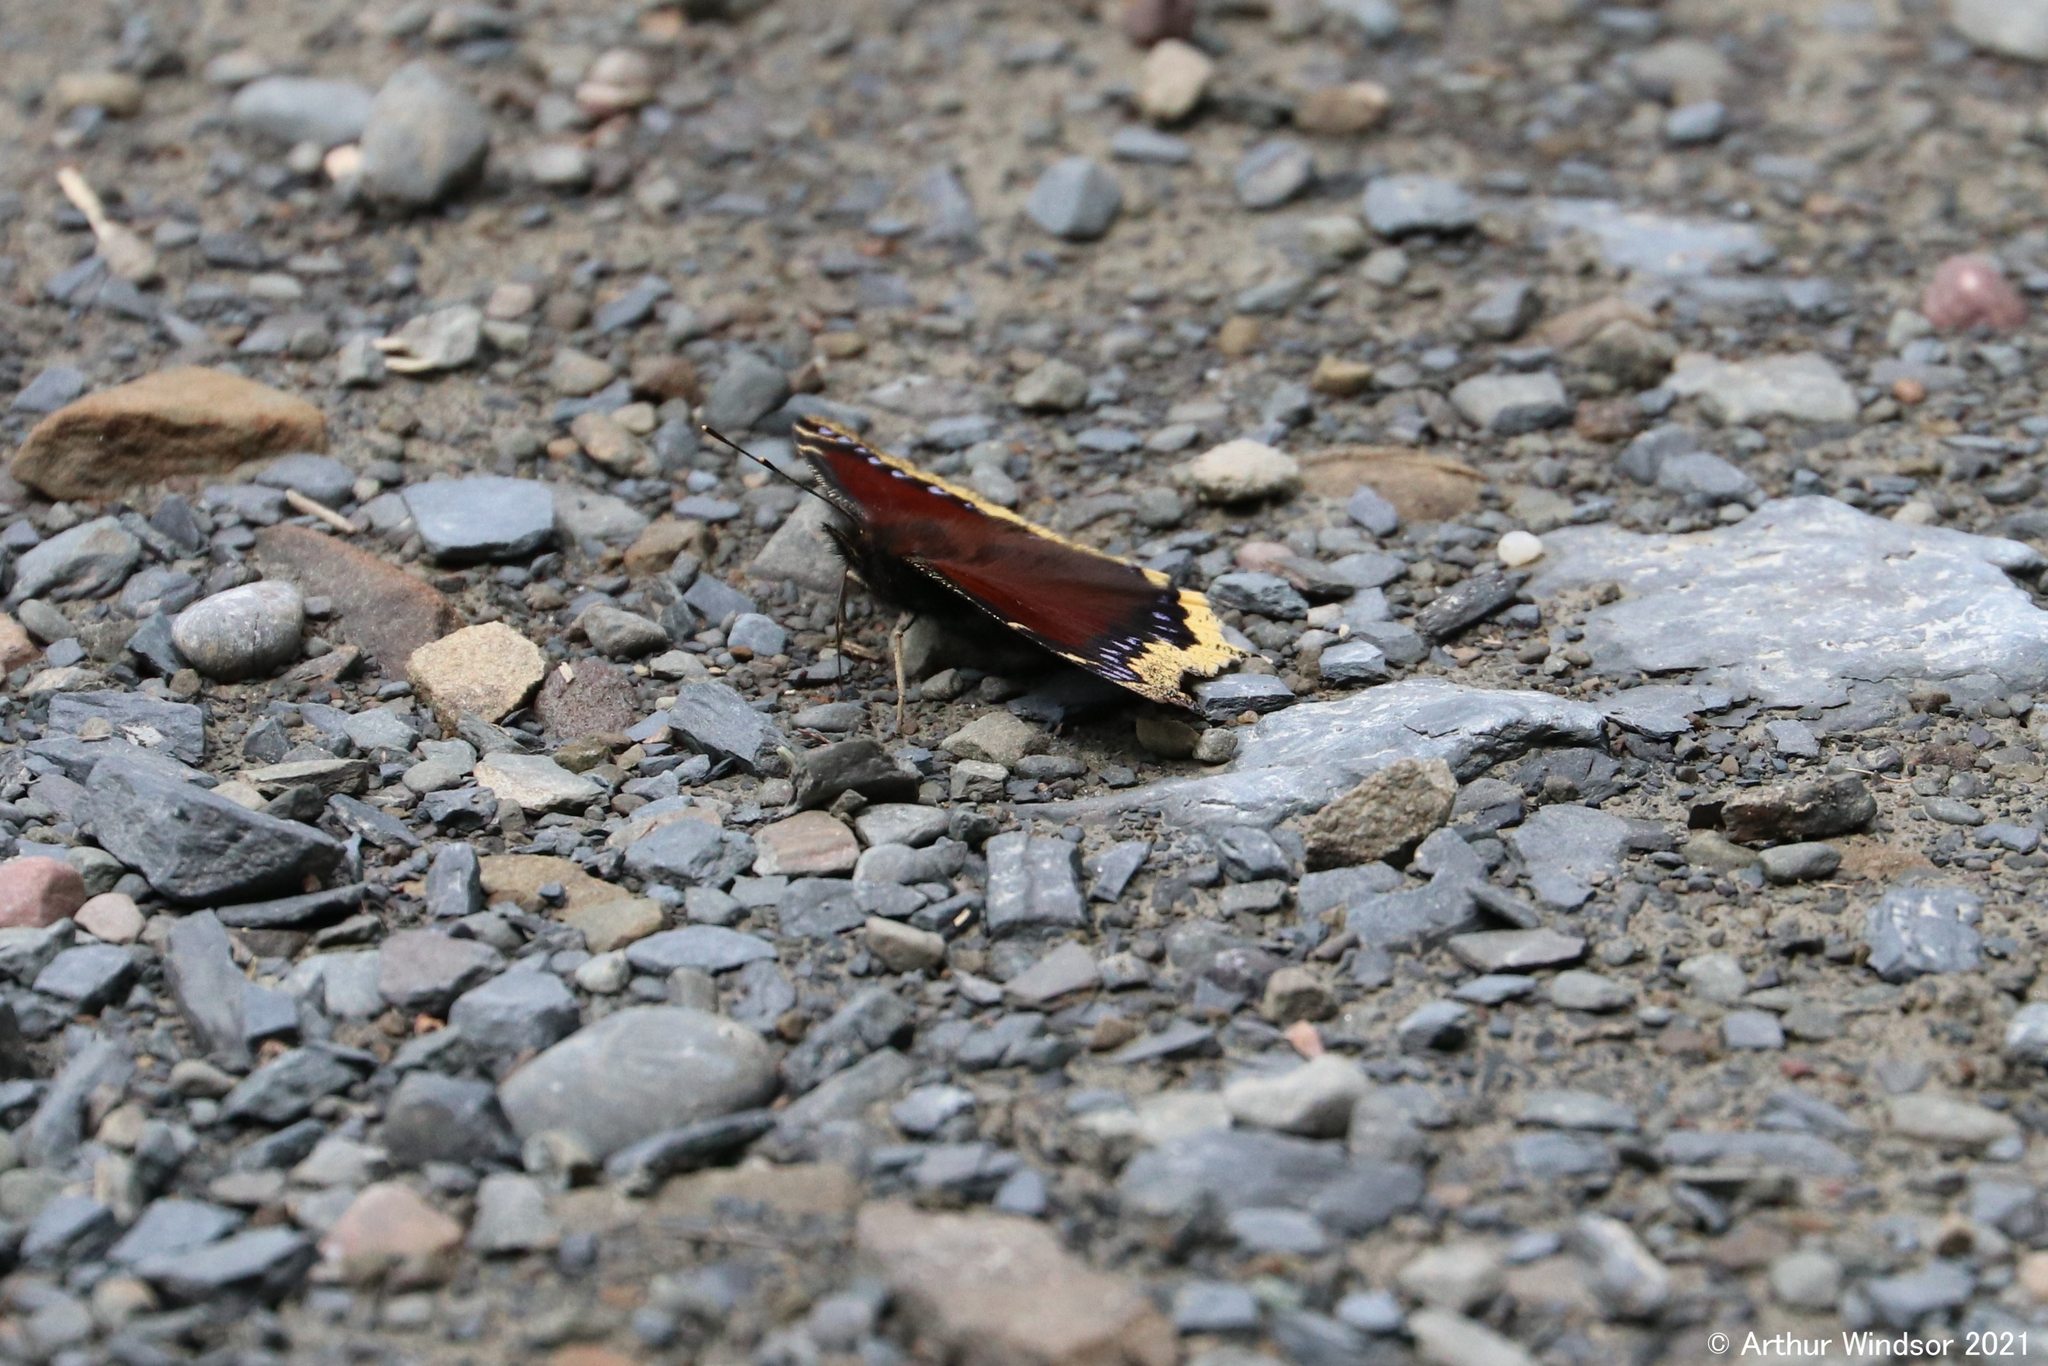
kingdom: Animalia
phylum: Arthropoda
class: Insecta
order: Lepidoptera
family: Nymphalidae
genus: Nymphalis
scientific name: Nymphalis antiopa
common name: Camberwell beauty
